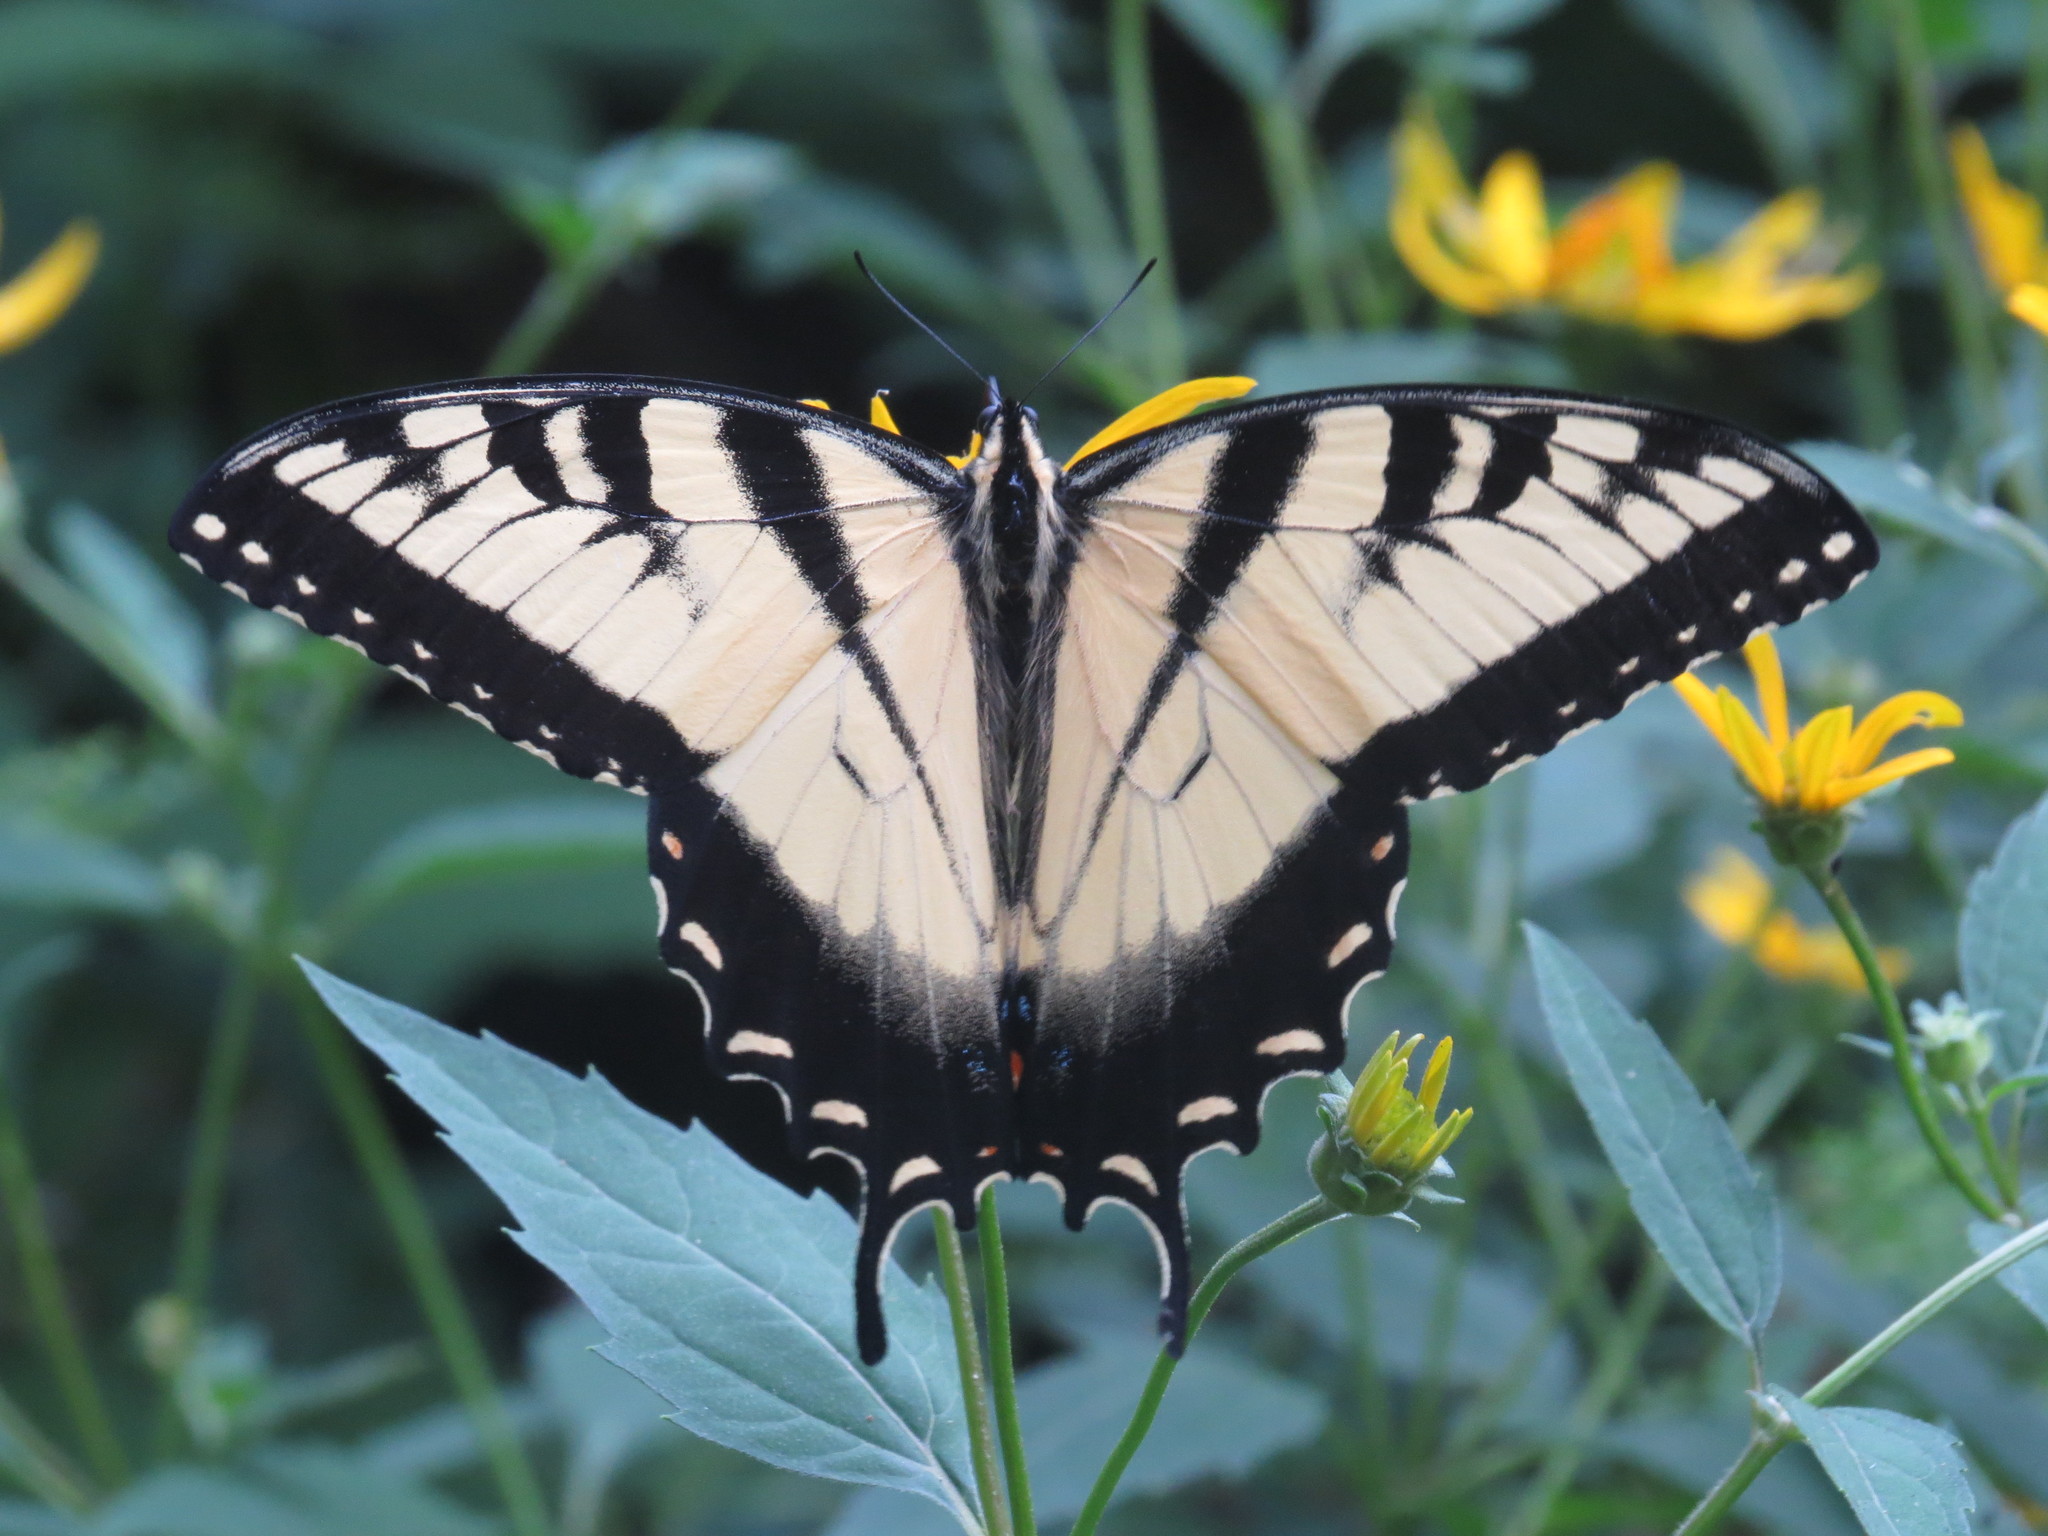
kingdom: Animalia
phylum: Arthropoda
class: Insecta
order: Lepidoptera
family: Papilionidae
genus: Papilio
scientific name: Papilio glaucus
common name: Tiger swallowtail
